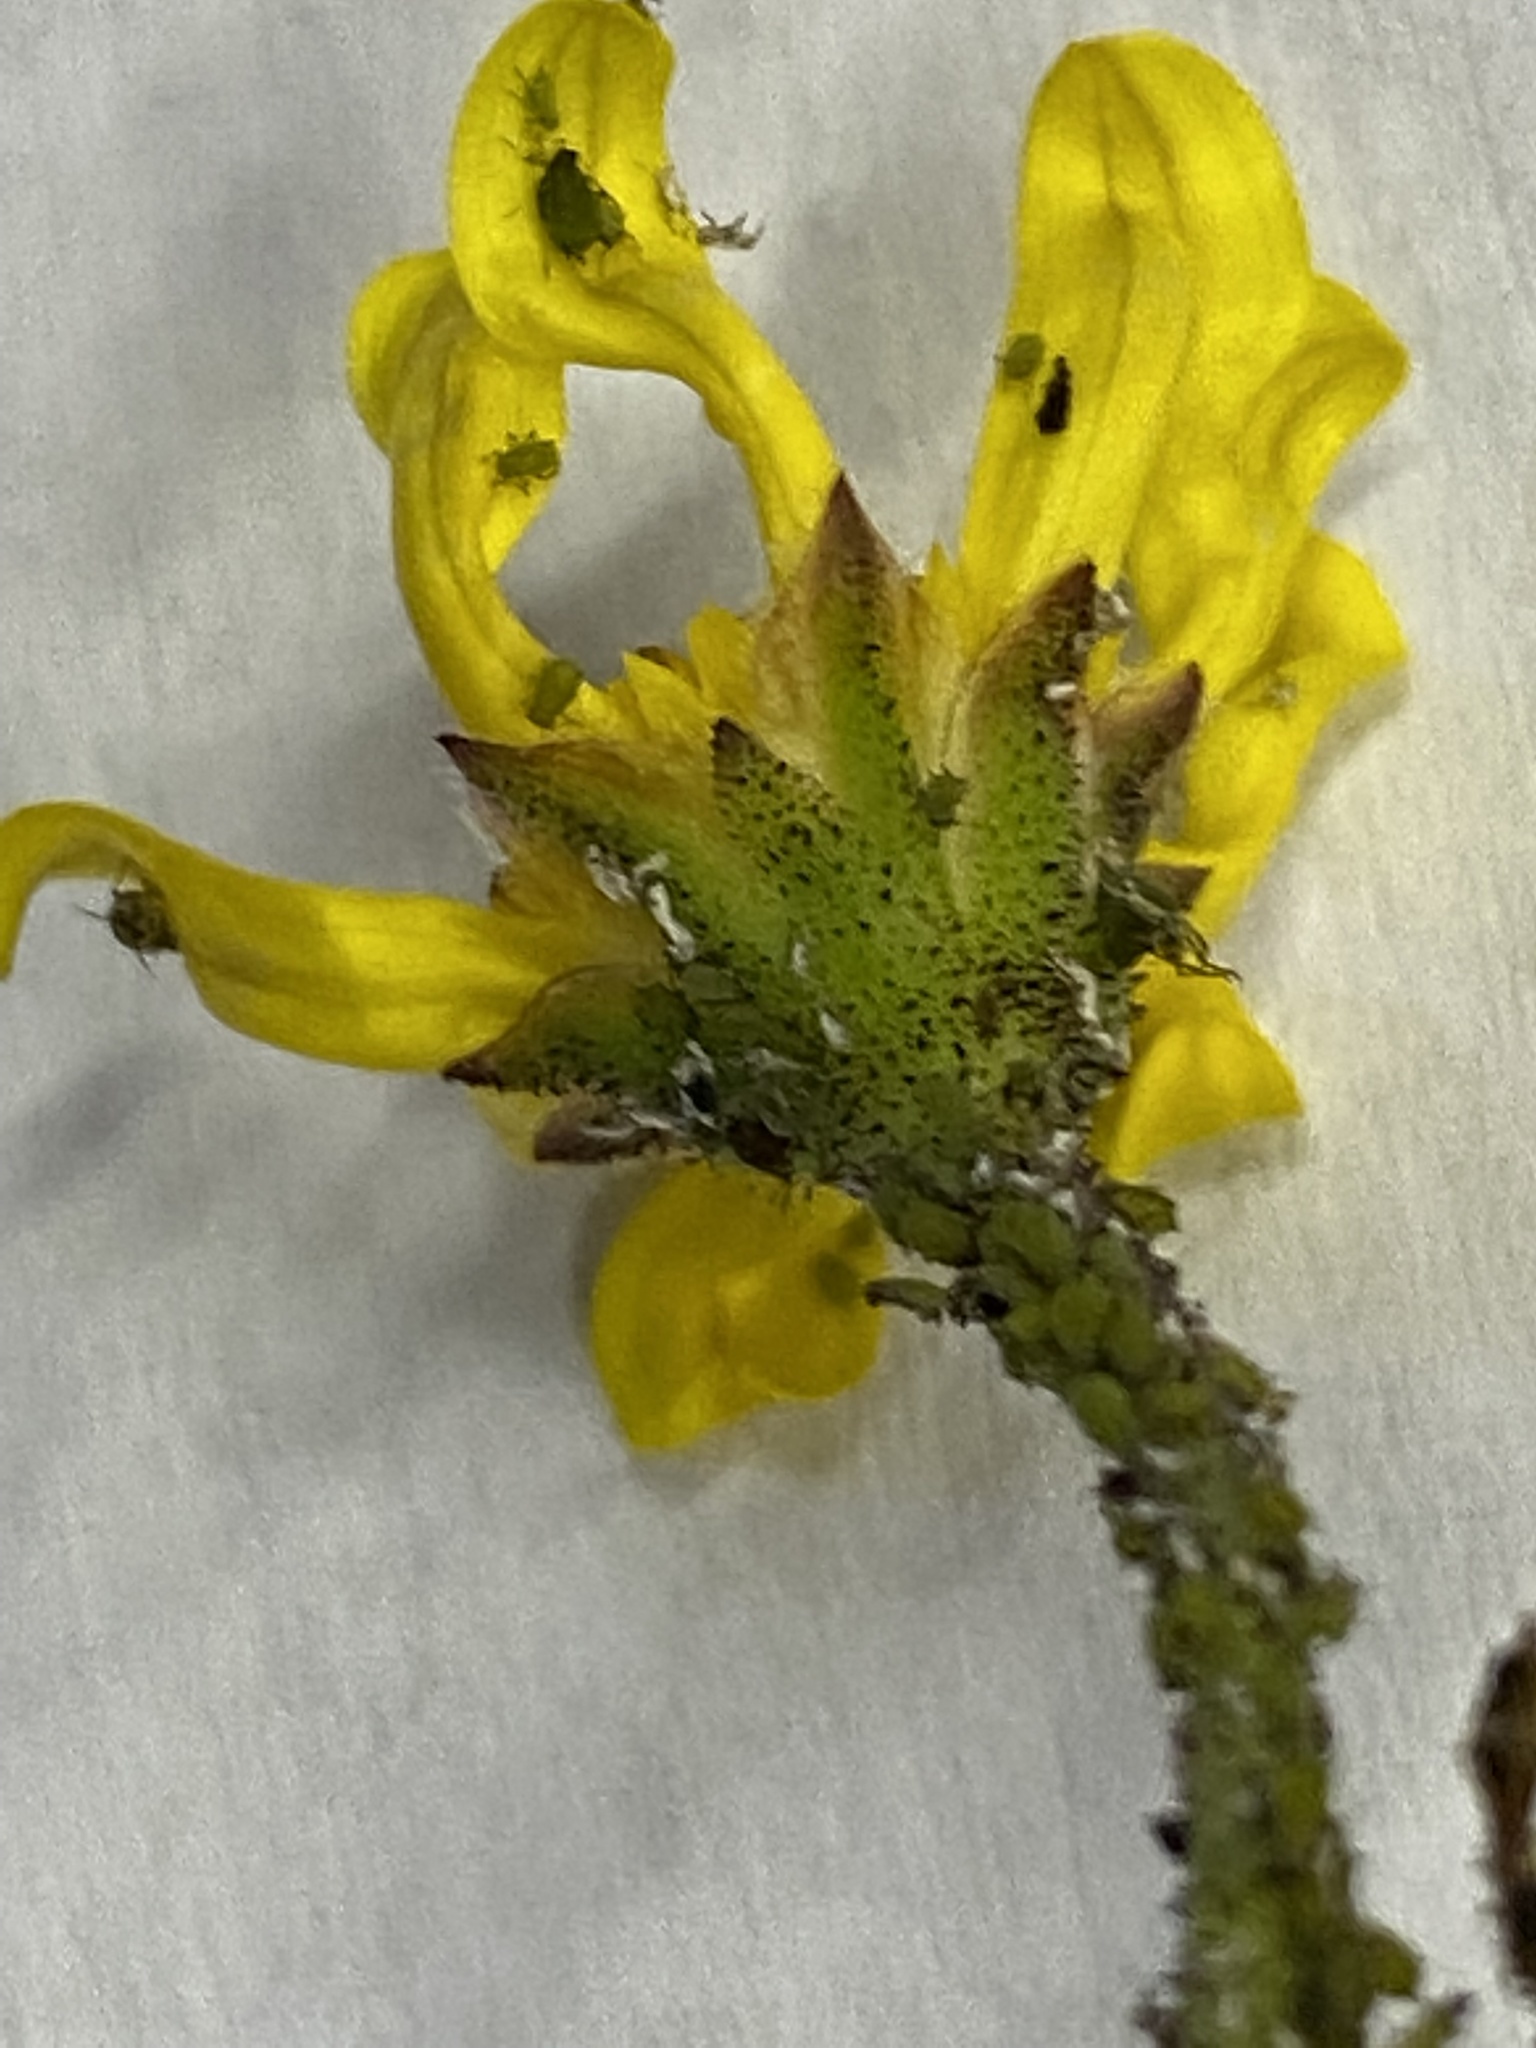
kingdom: Plantae
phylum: Tracheophyta
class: Magnoliopsida
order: Asterales
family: Asteraceae
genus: Osteospermum
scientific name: Osteospermum polygaloides
